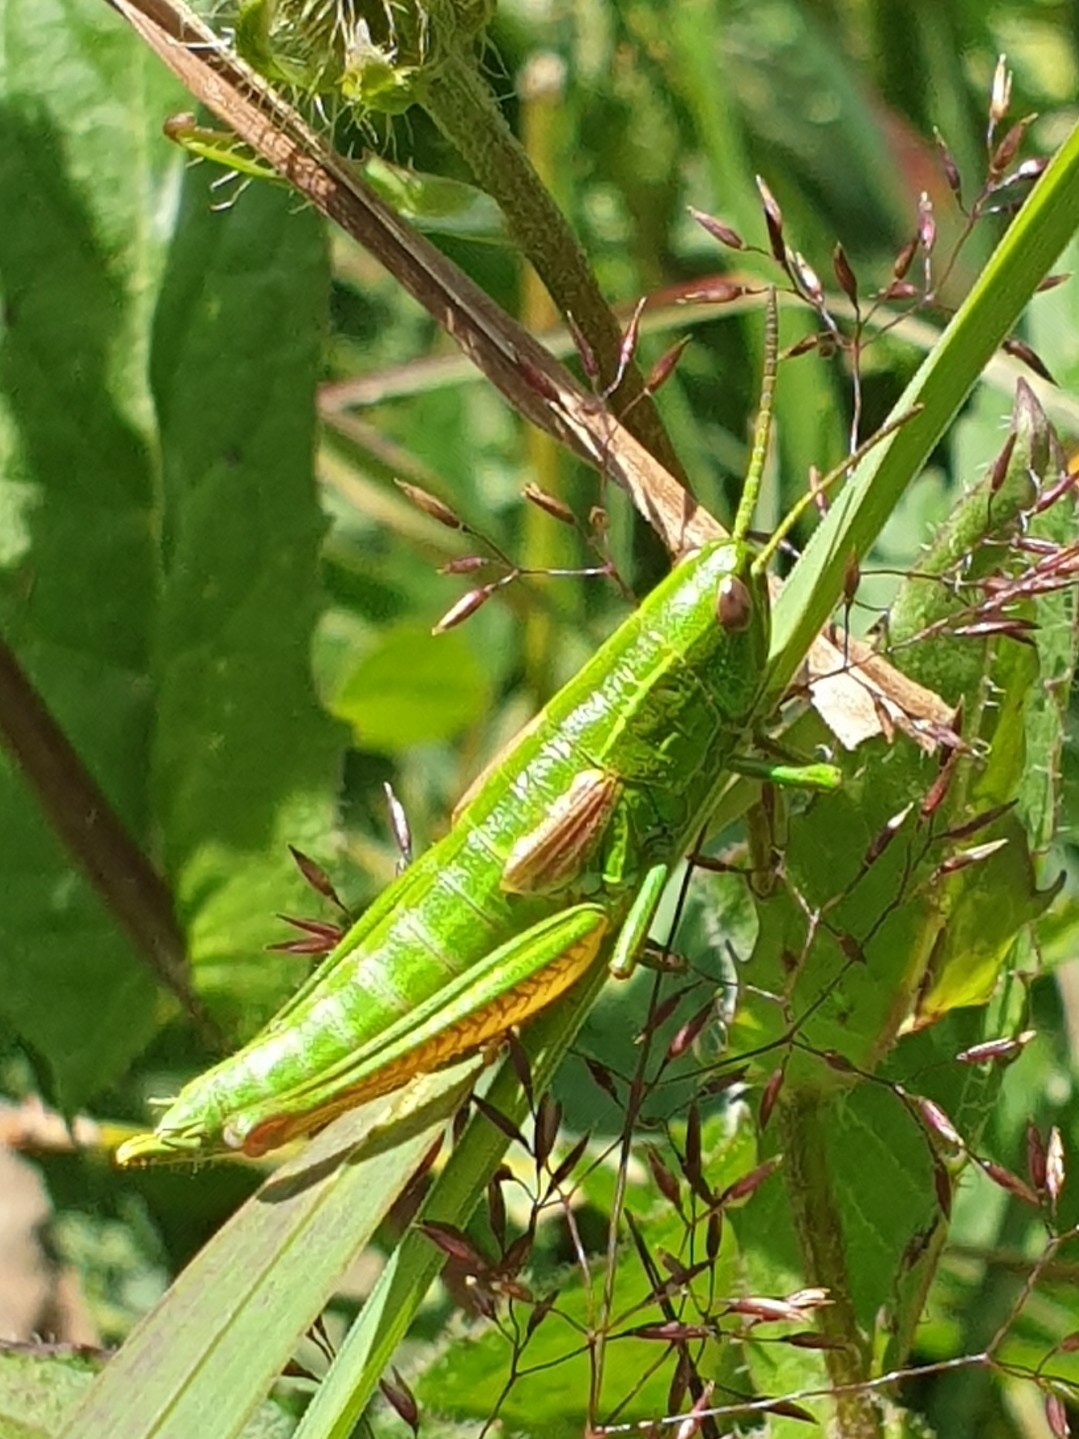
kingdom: Animalia
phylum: Arthropoda
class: Insecta
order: Orthoptera
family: Acrididae
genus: Euthystira
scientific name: Euthystira brachyptera
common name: Small gold grasshopper
